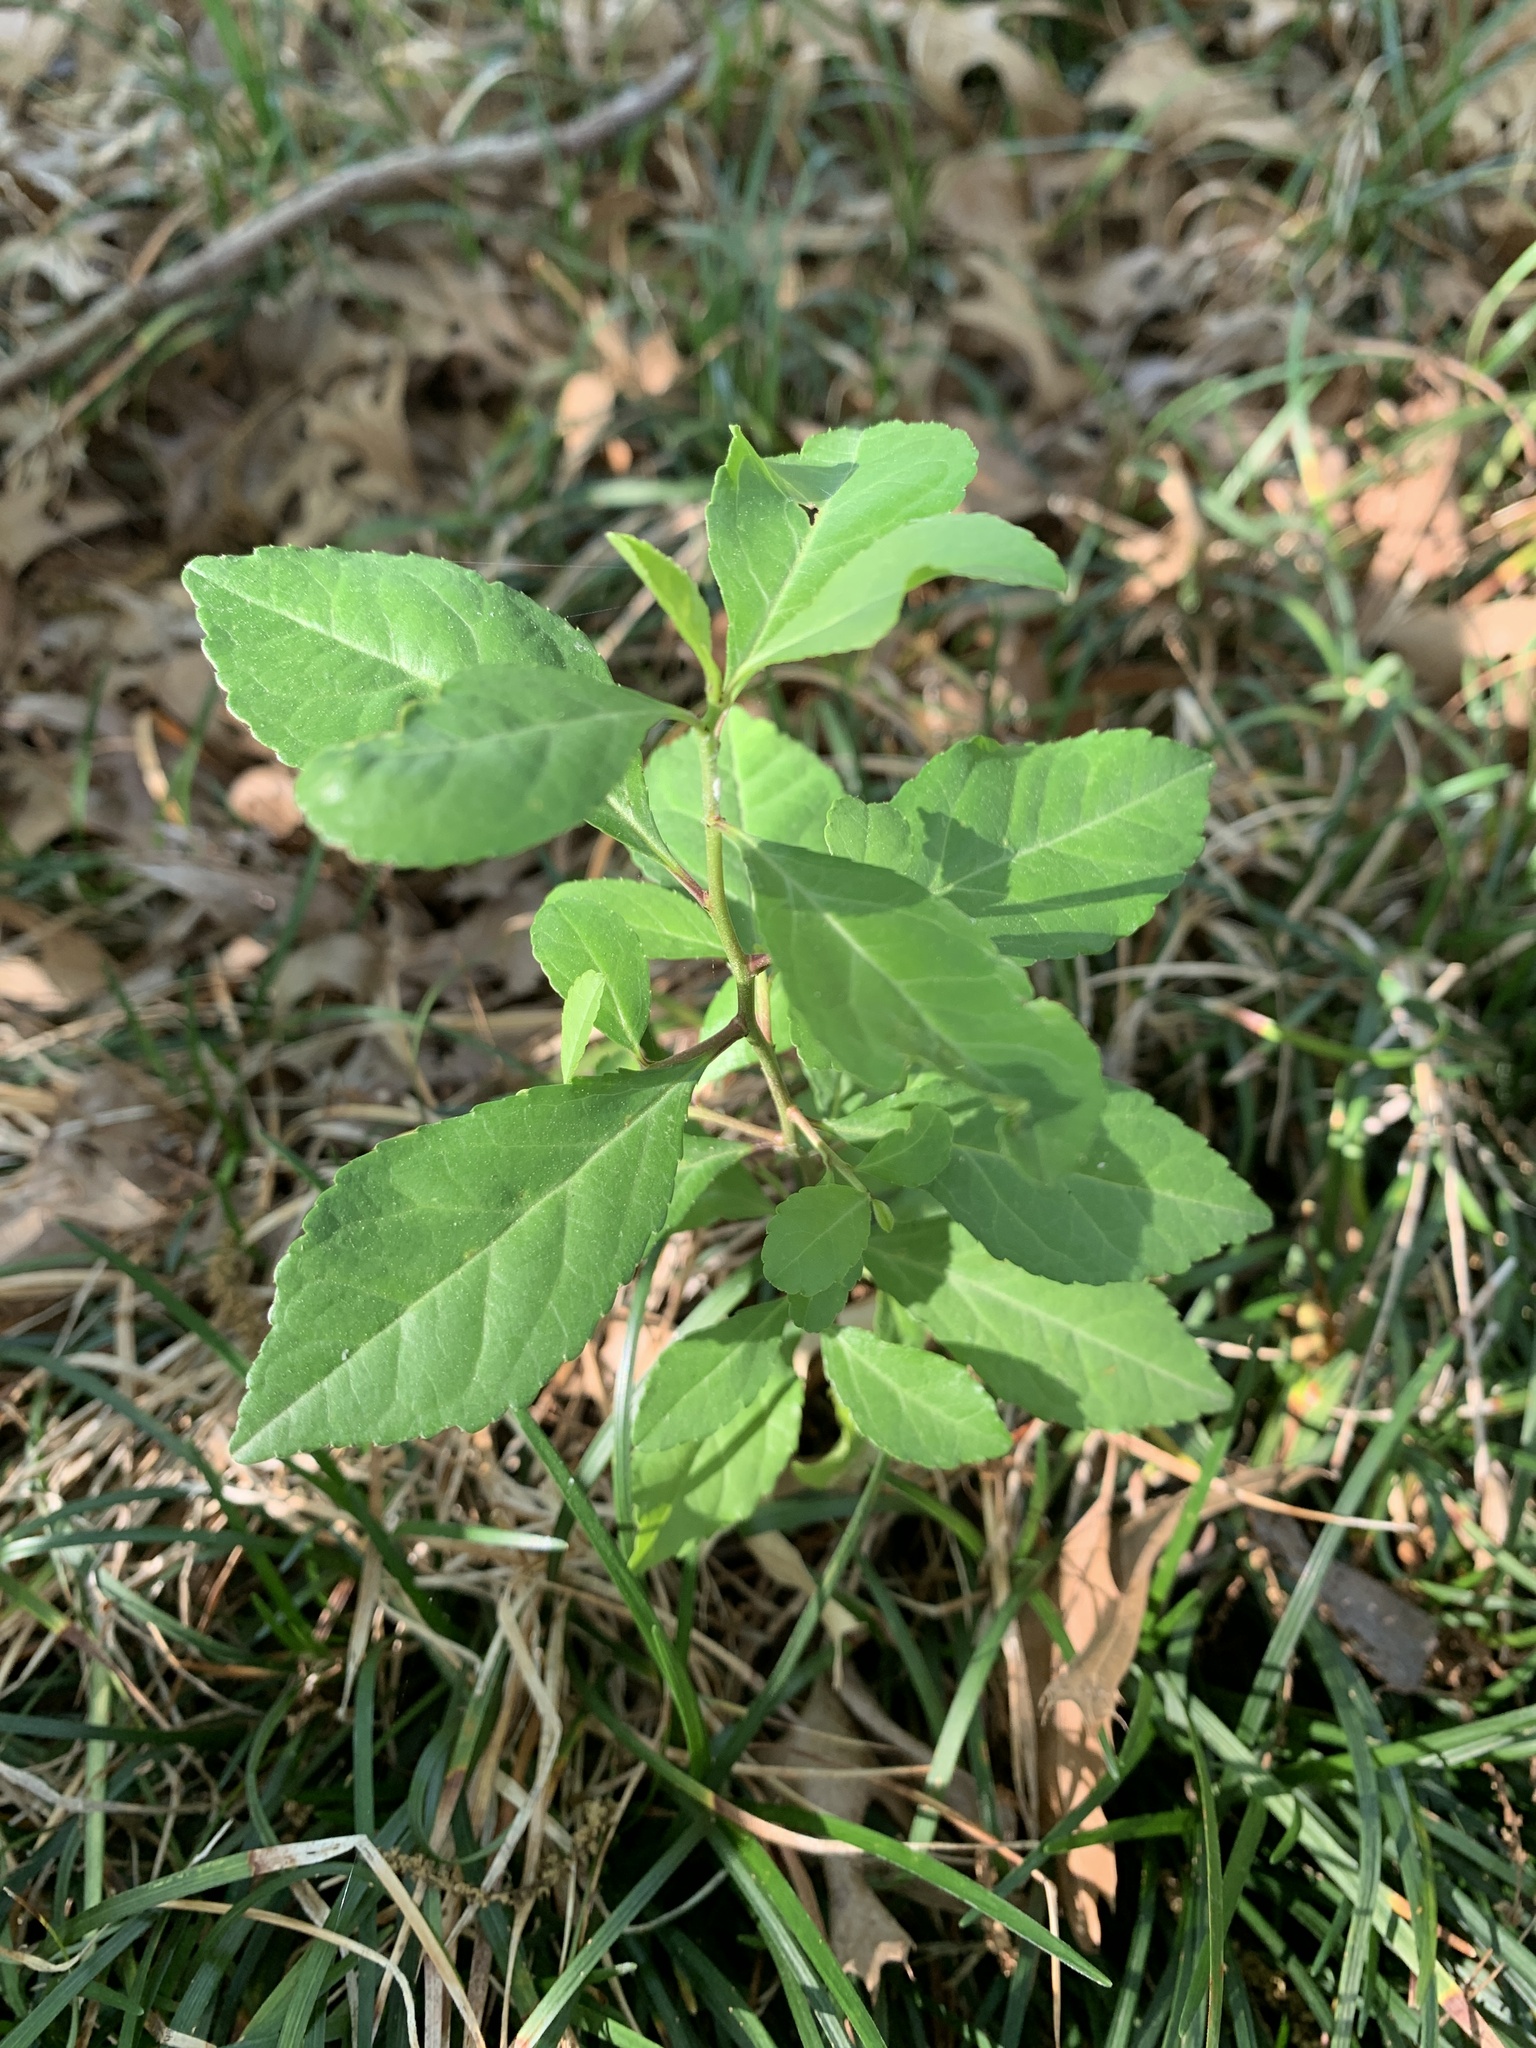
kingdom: Plantae
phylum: Tracheophyta
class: Magnoliopsida
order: Aquifoliales
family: Aquifoliaceae
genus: Ilex
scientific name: Ilex decidua
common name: Possum-haw
